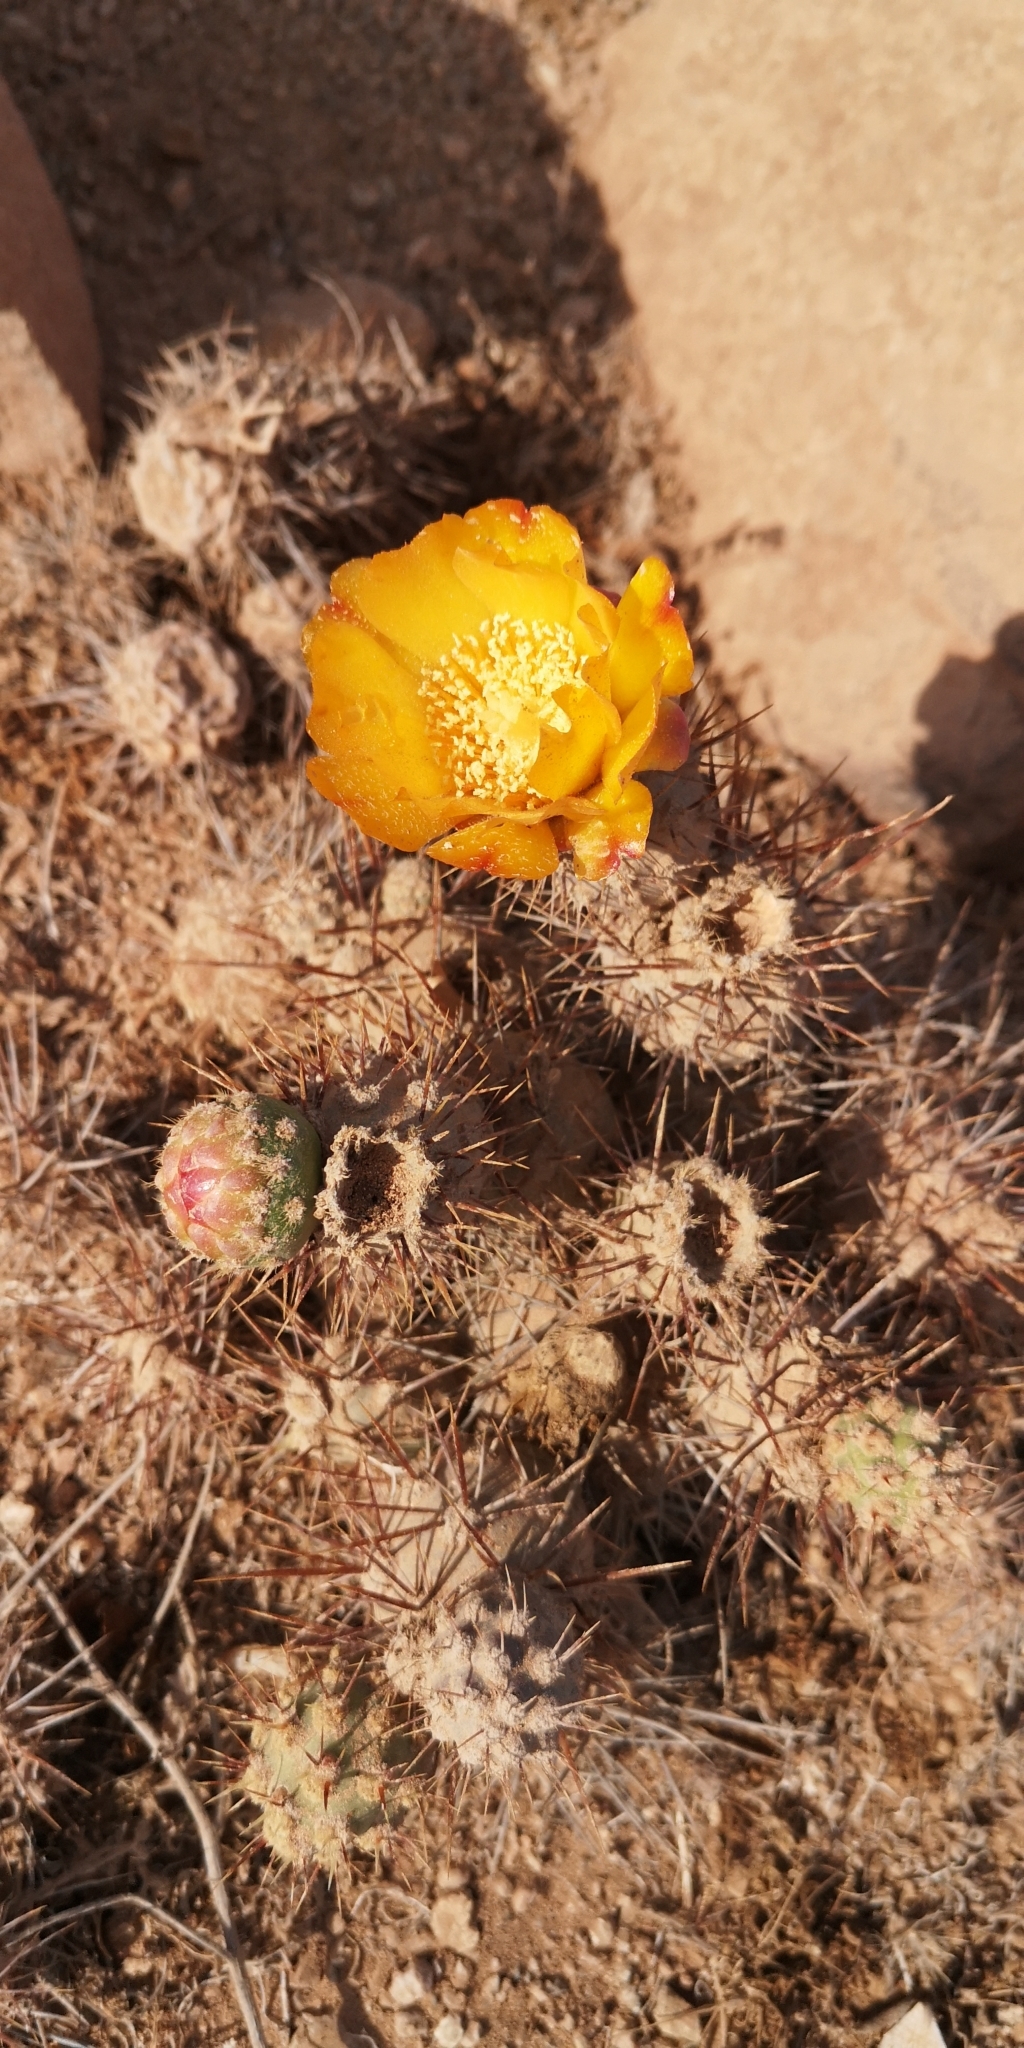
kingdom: Plantae
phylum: Tracheophyta
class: Magnoliopsida
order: Caryophyllales
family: Cactaceae
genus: Cumulopuntia
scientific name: Cumulopuntia leucophaea
